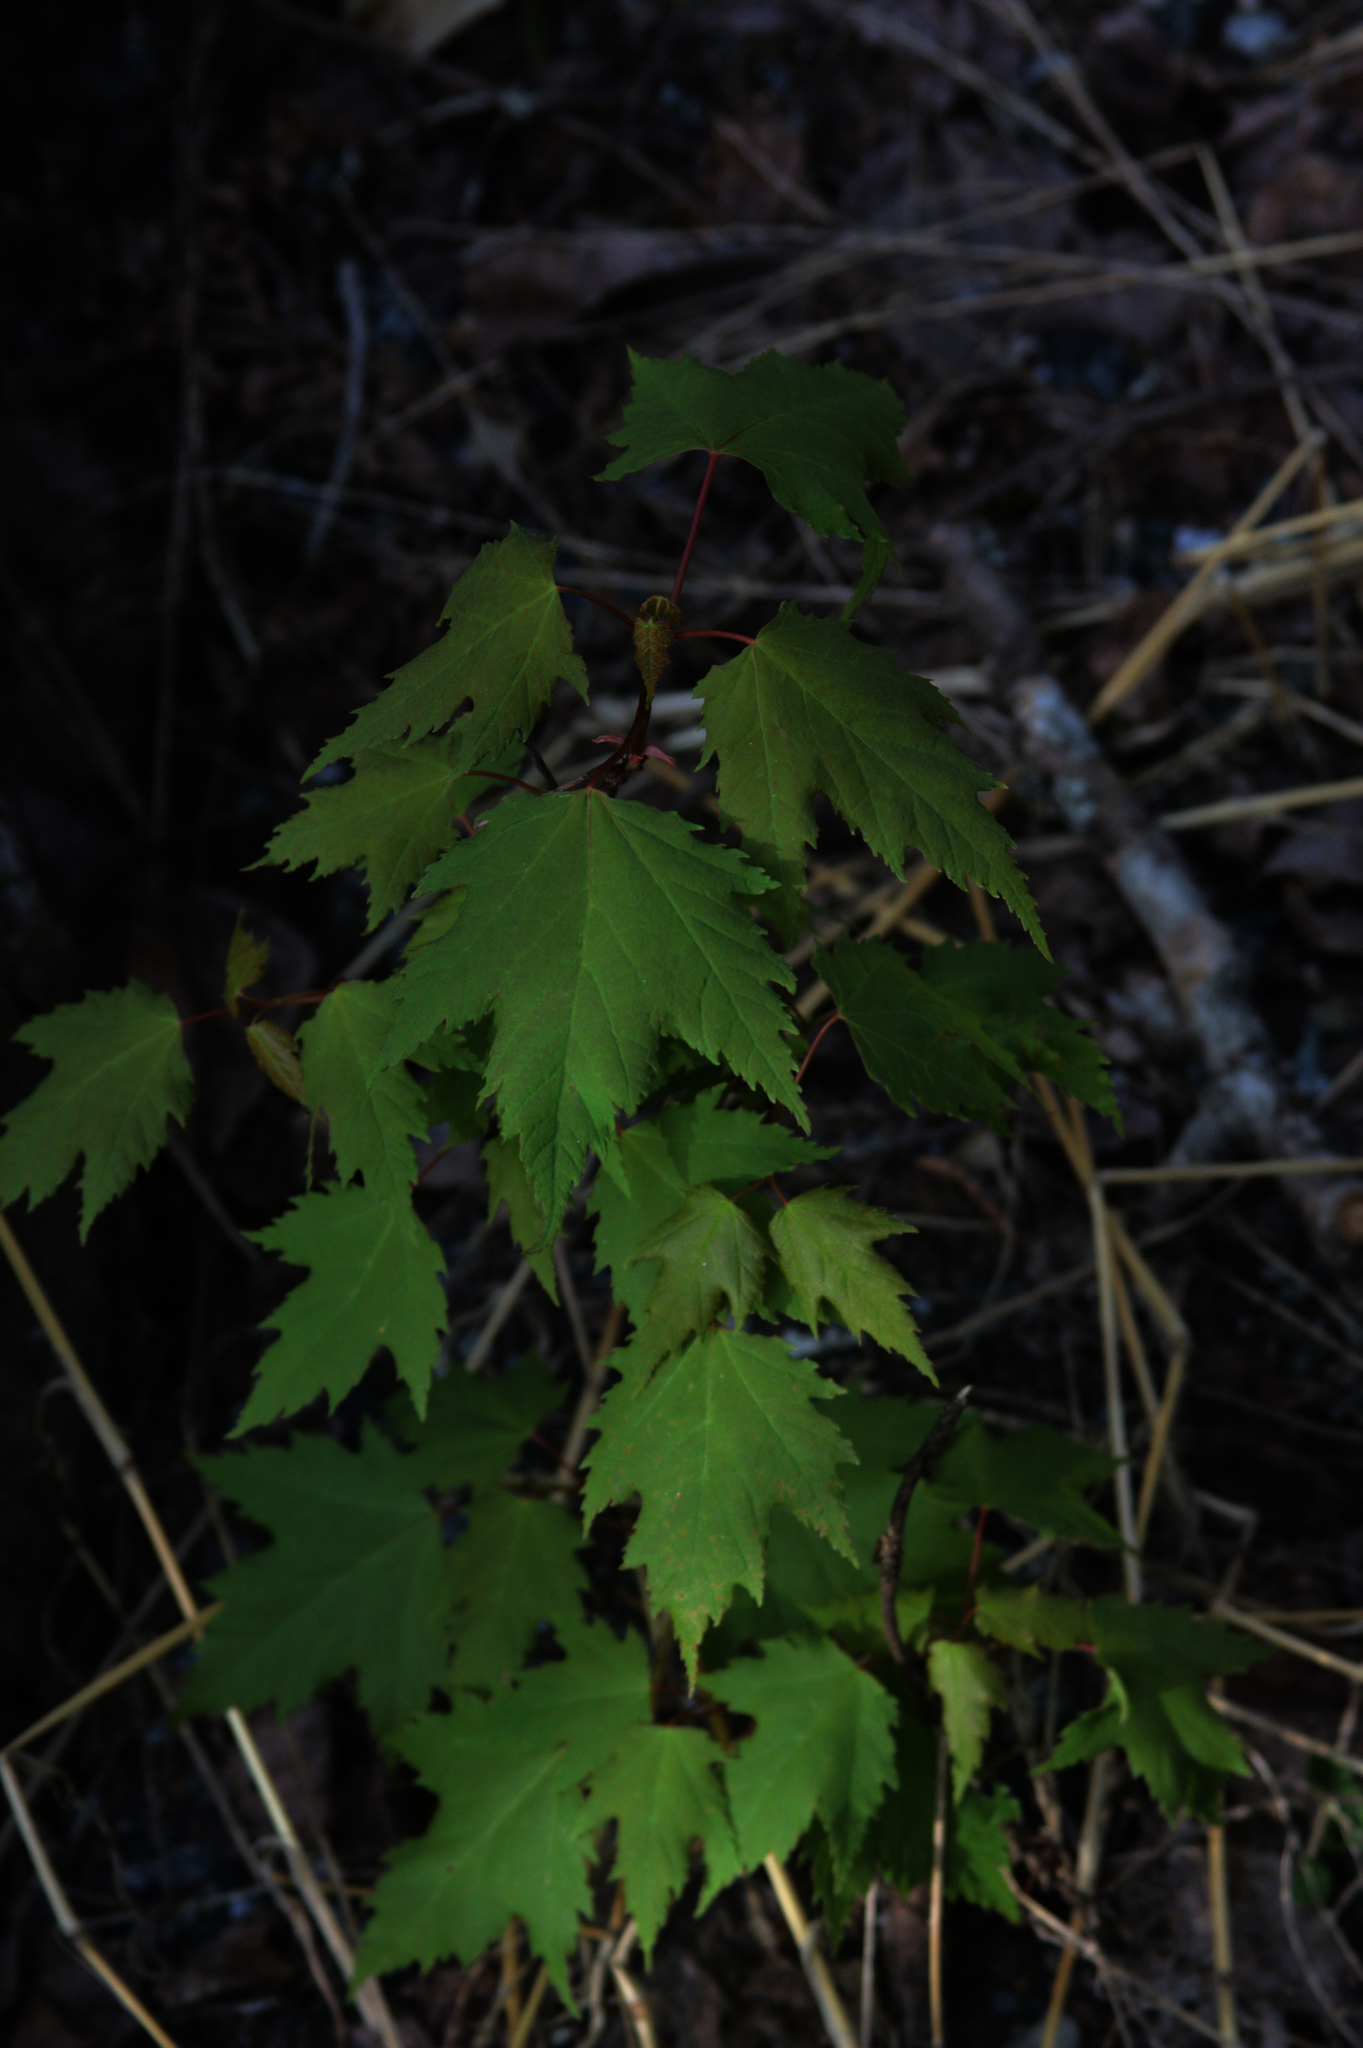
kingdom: Plantae
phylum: Tracheophyta
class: Magnoliopsida
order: Sapindales
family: Sapindaceae
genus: Acer
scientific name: Acer rubrum
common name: Red maple
